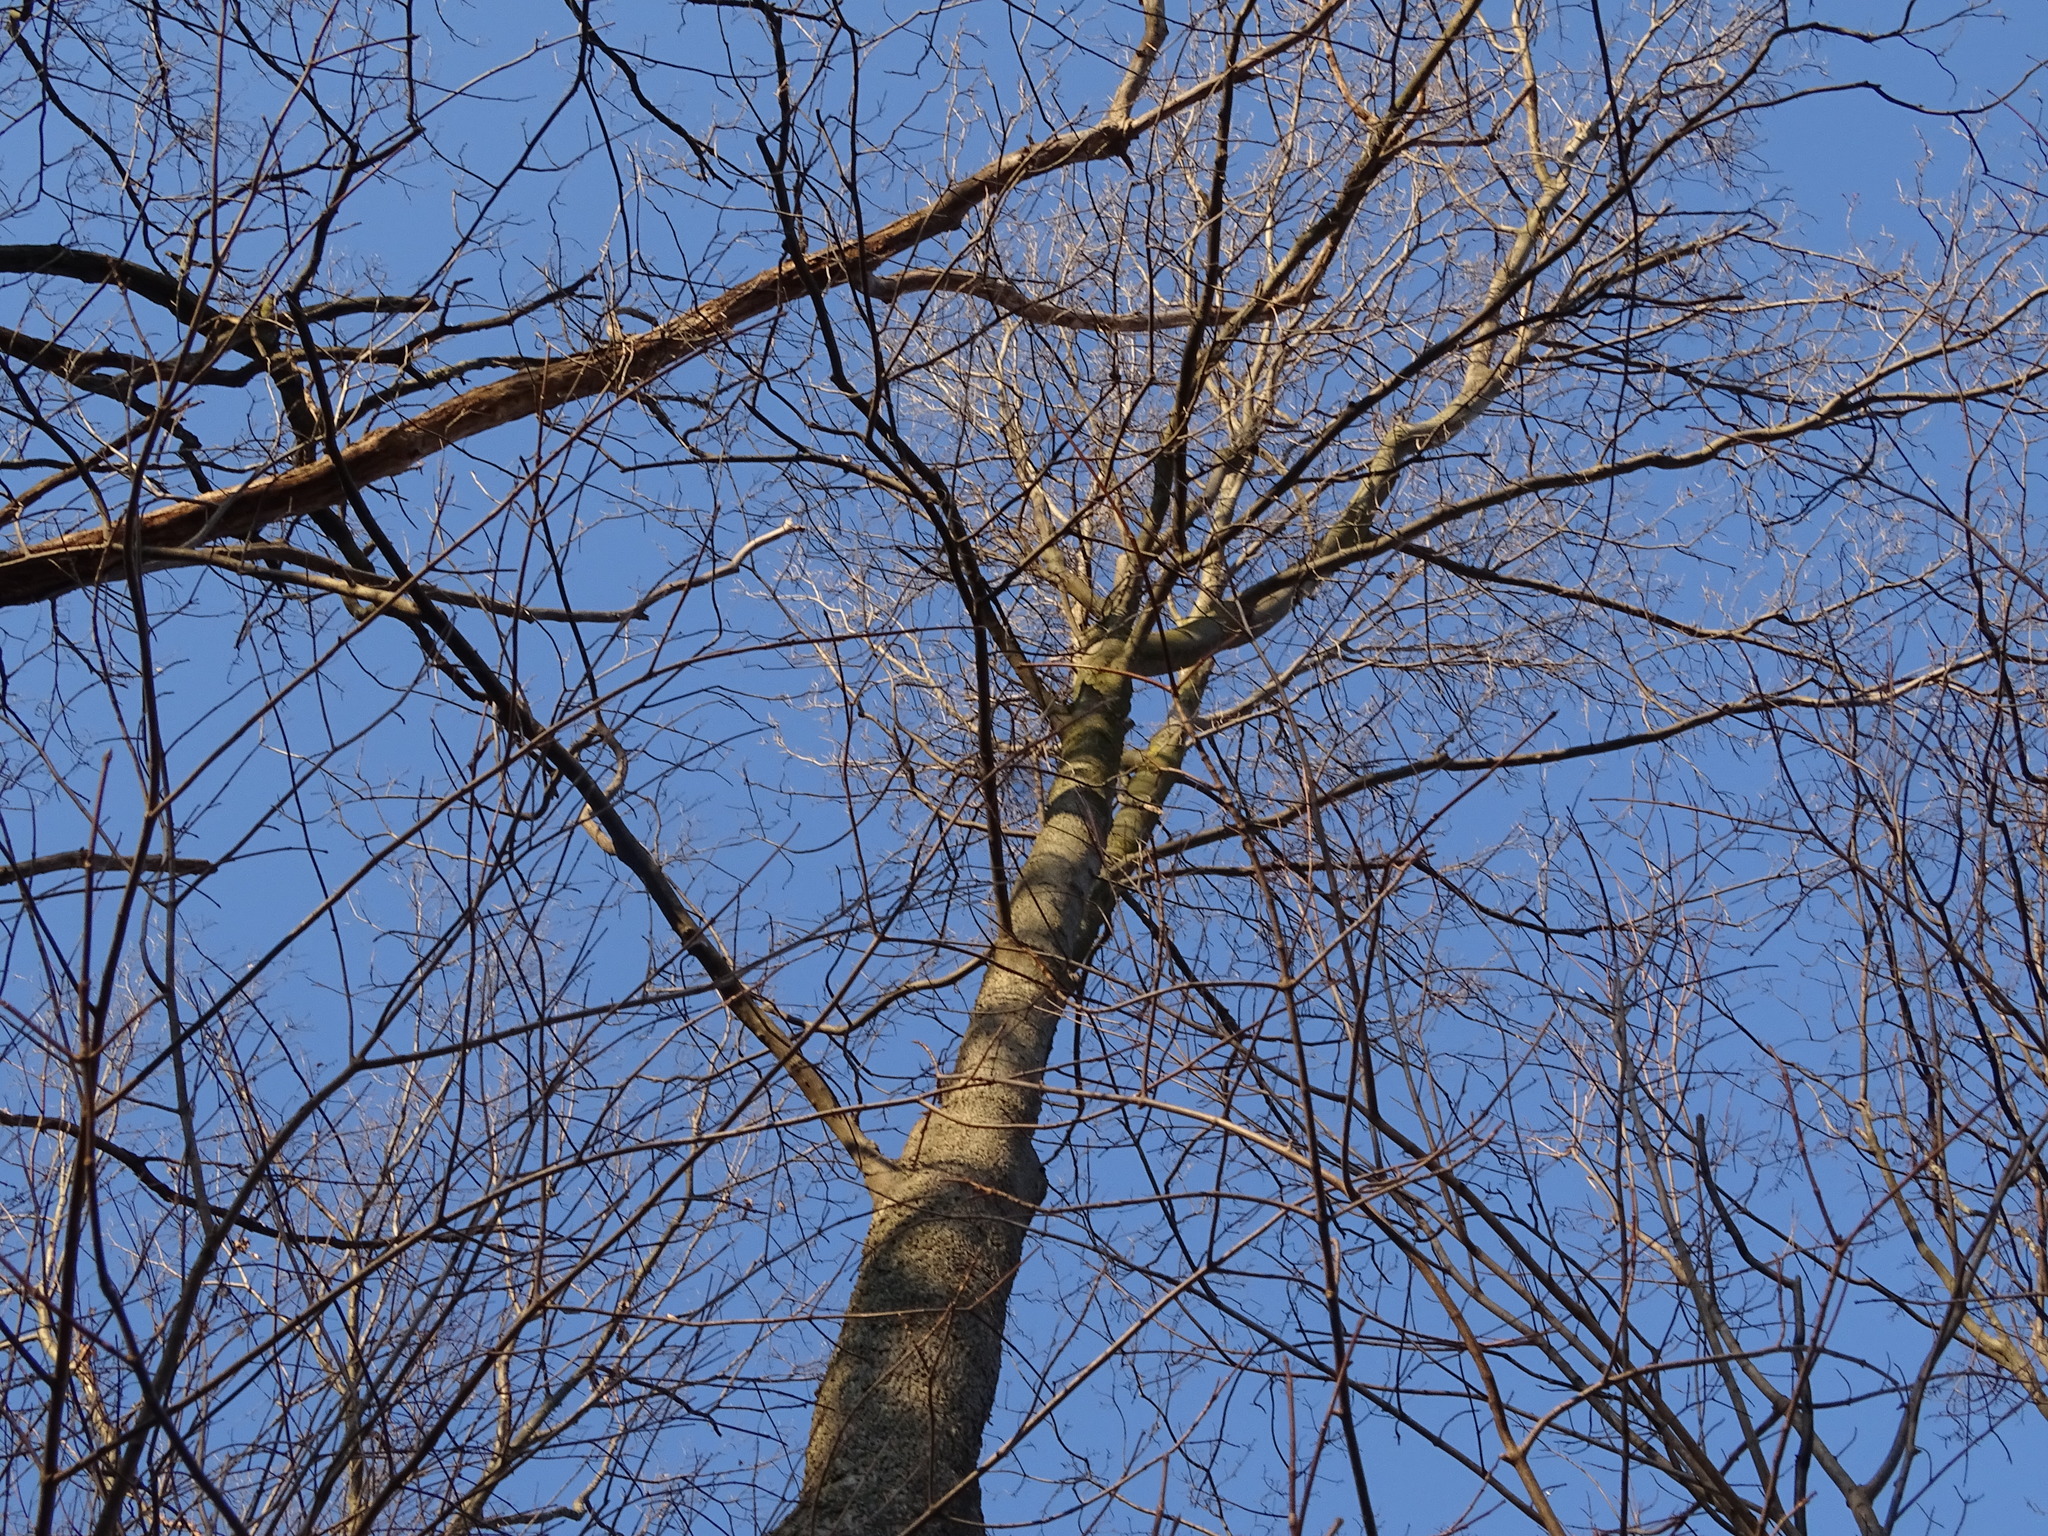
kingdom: Plantae
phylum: Tracheophyta
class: Magnoliopsida
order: Fagales
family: Juglandaceae
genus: Carya
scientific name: Carya cordiformis
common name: Bitternut hickory
